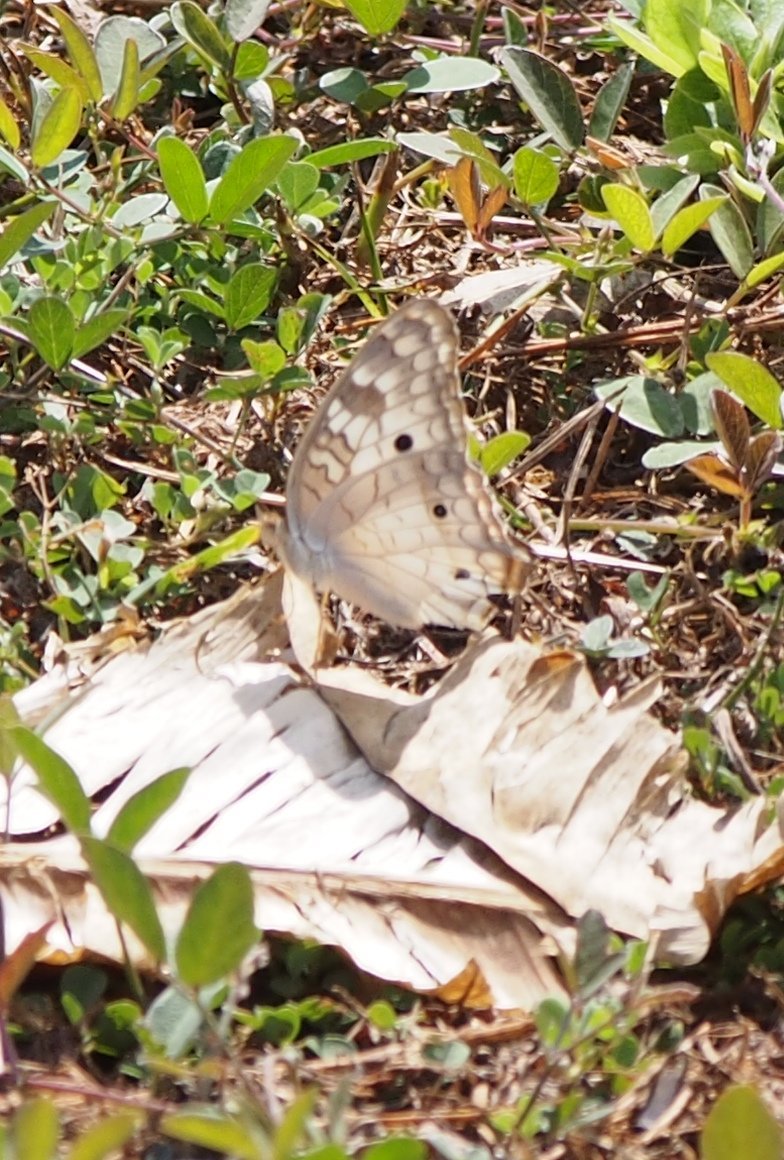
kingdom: Animalia
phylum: Arthropoda
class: Insecta
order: Lepidoptera
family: Nymphalidae
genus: Anartia
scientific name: Anartia jatrophae
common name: White peacock
